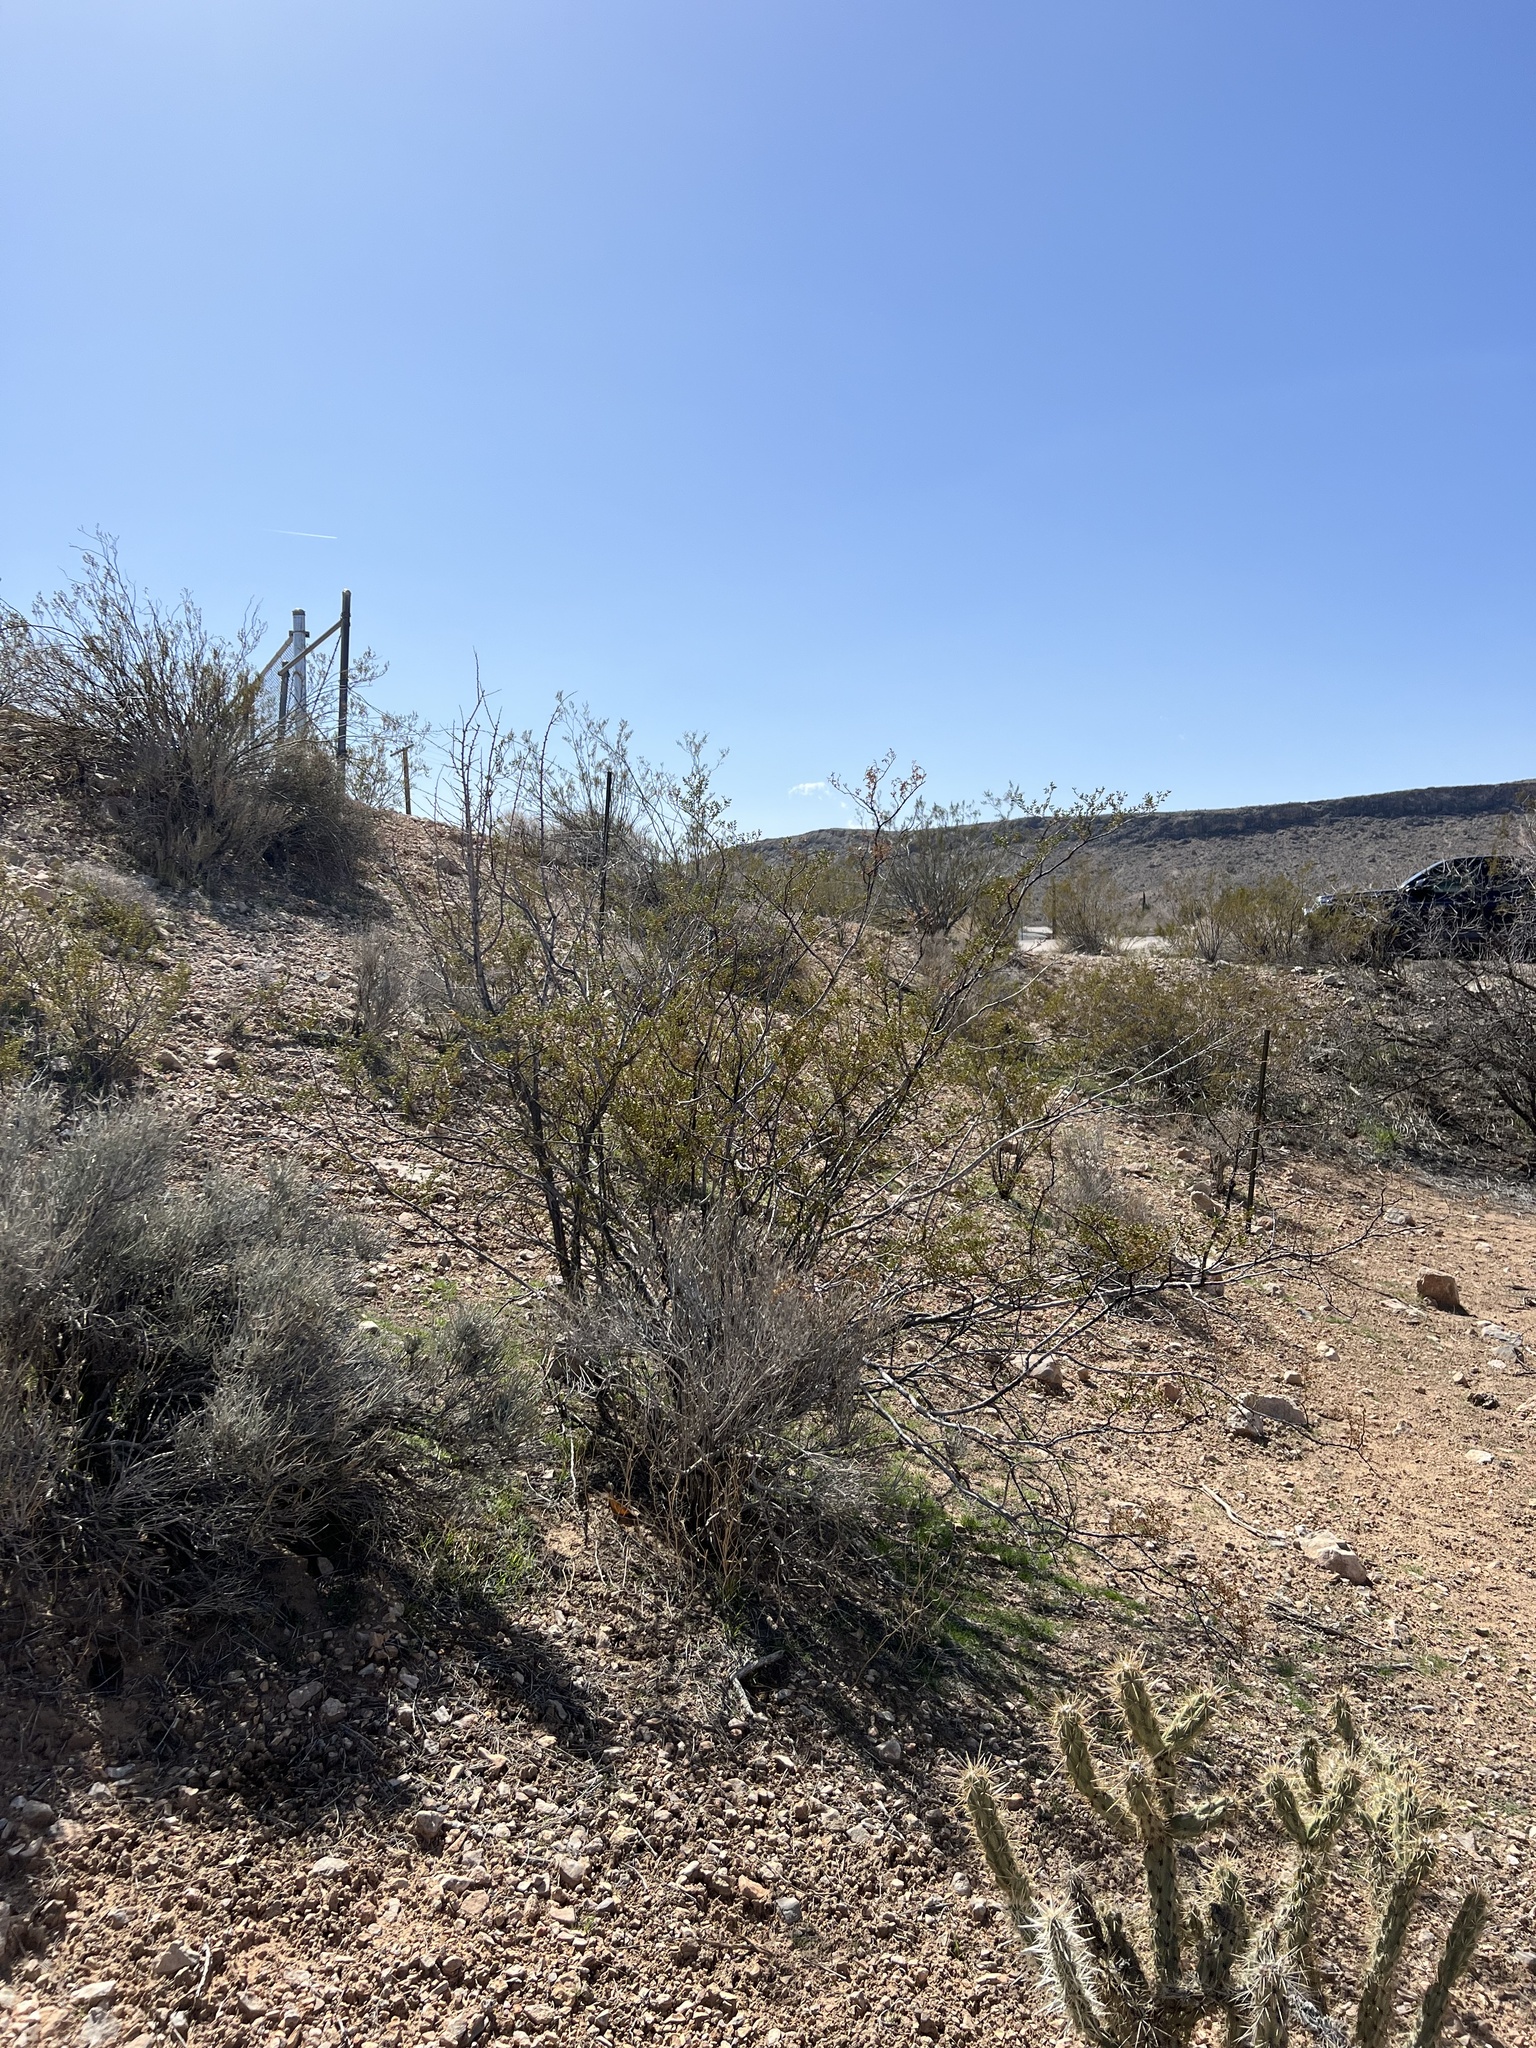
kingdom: Plantae
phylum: Tracheophyta
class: Magnoliopsida
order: Zygophyllales
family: Zygophyllaceae
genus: Larrea
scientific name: Larrea tridentata
